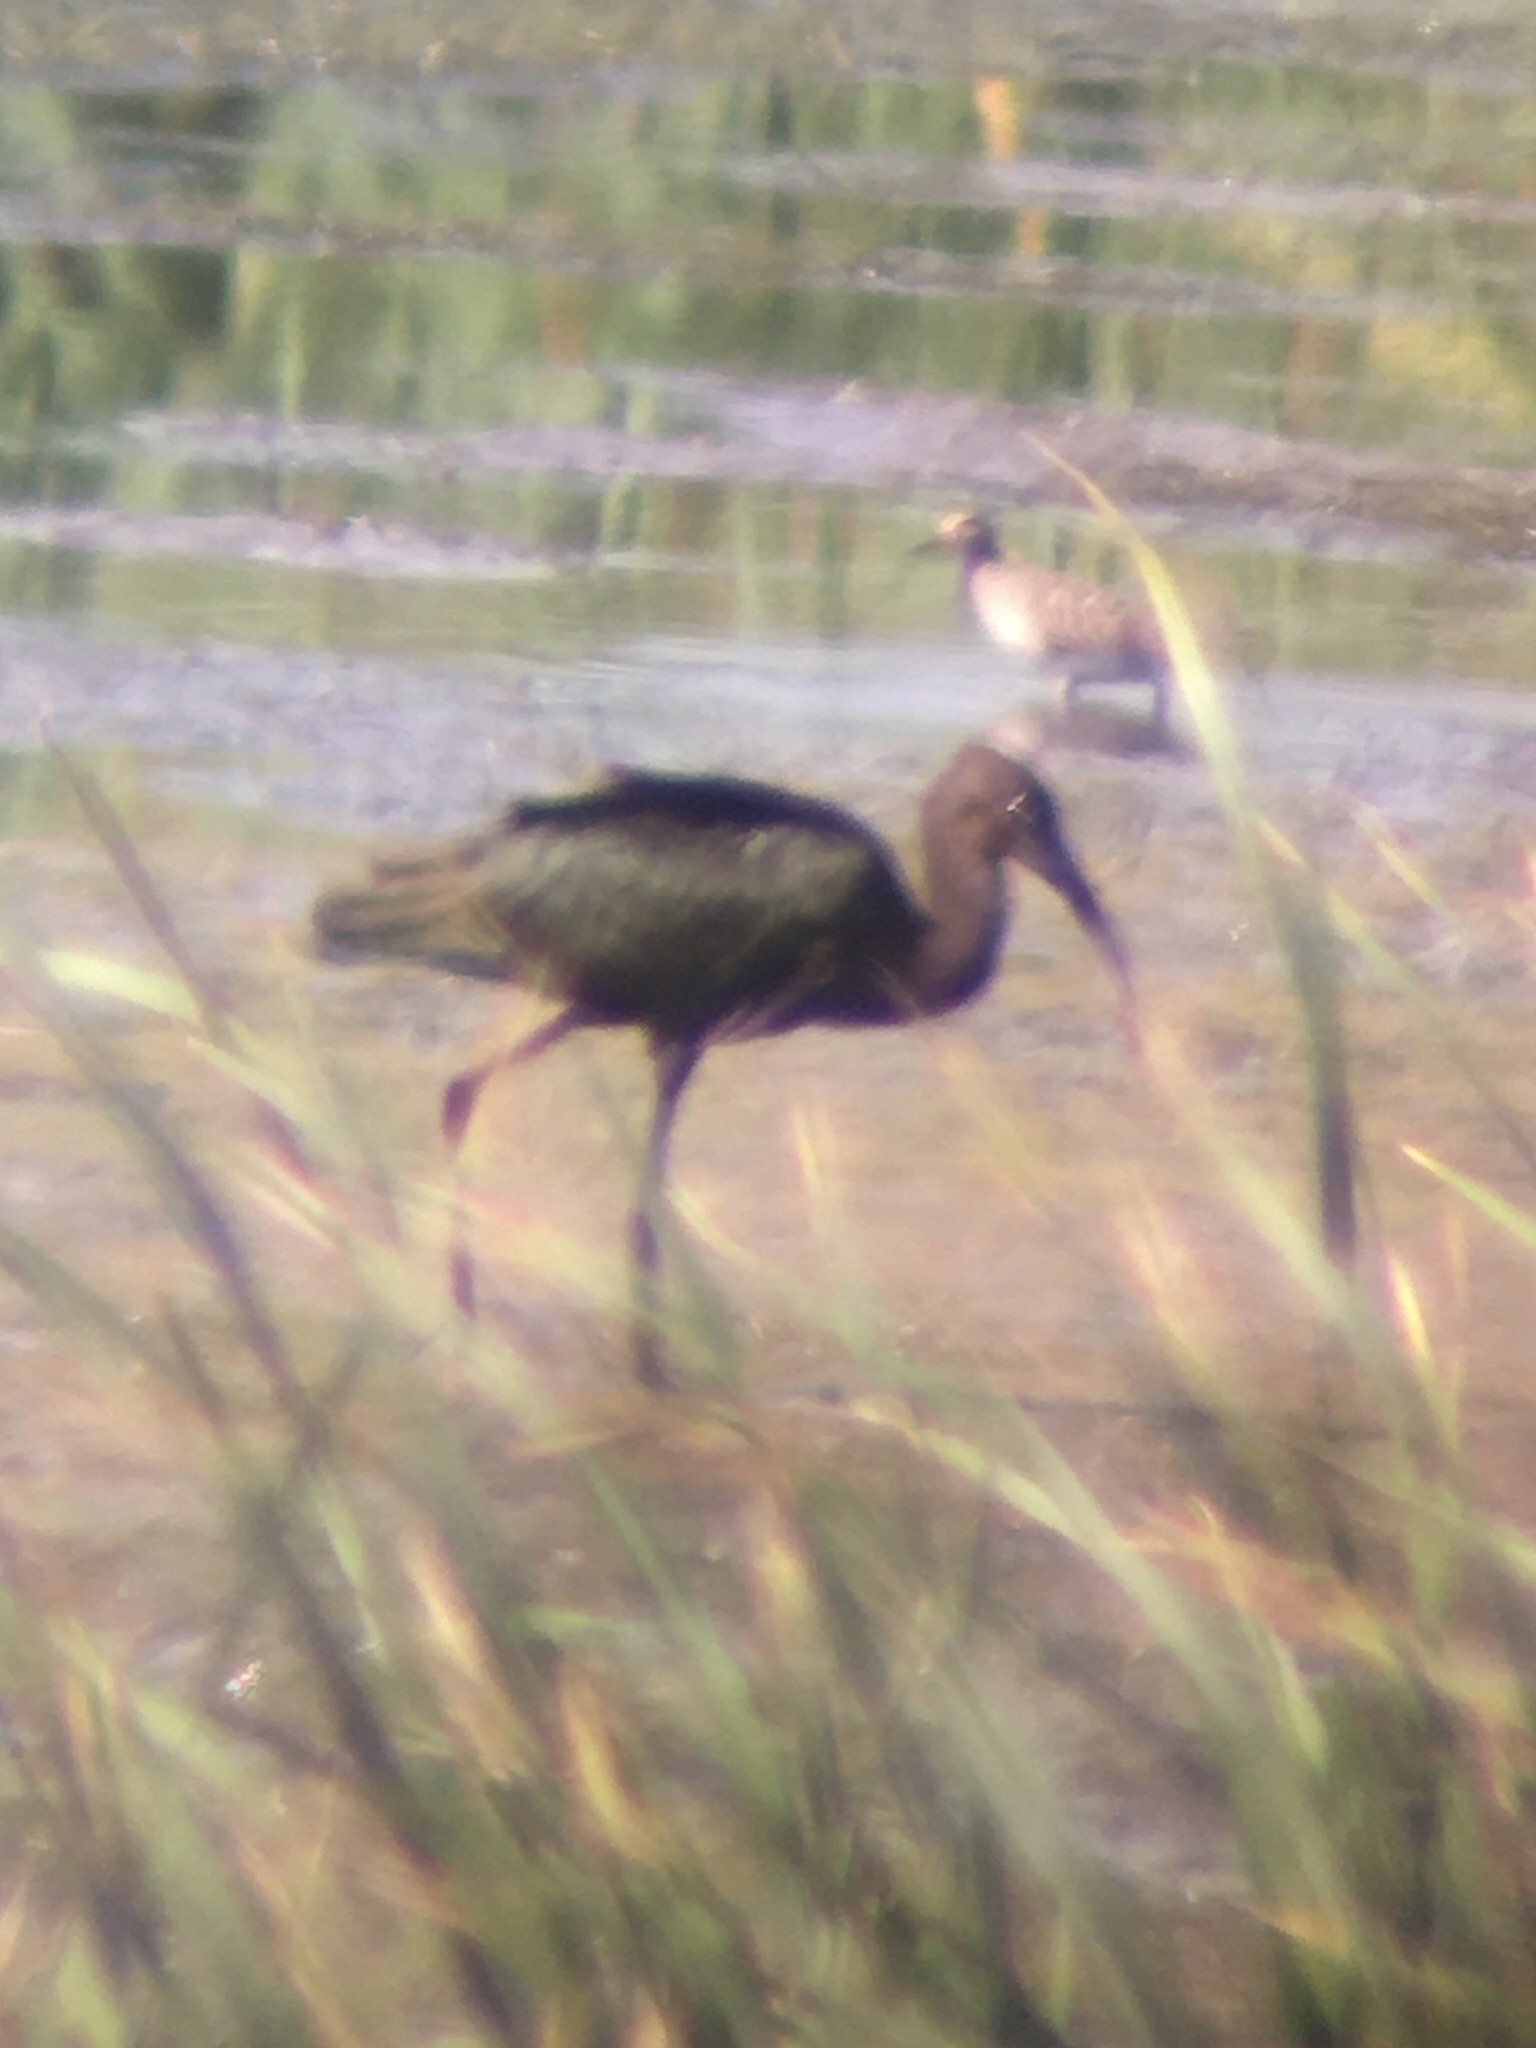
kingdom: Animalia
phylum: Chordata
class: Aves
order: Pelecaniformes
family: Threskiornithidae
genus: Plegadis
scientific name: Plegadis chihi
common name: White-faced ibis
